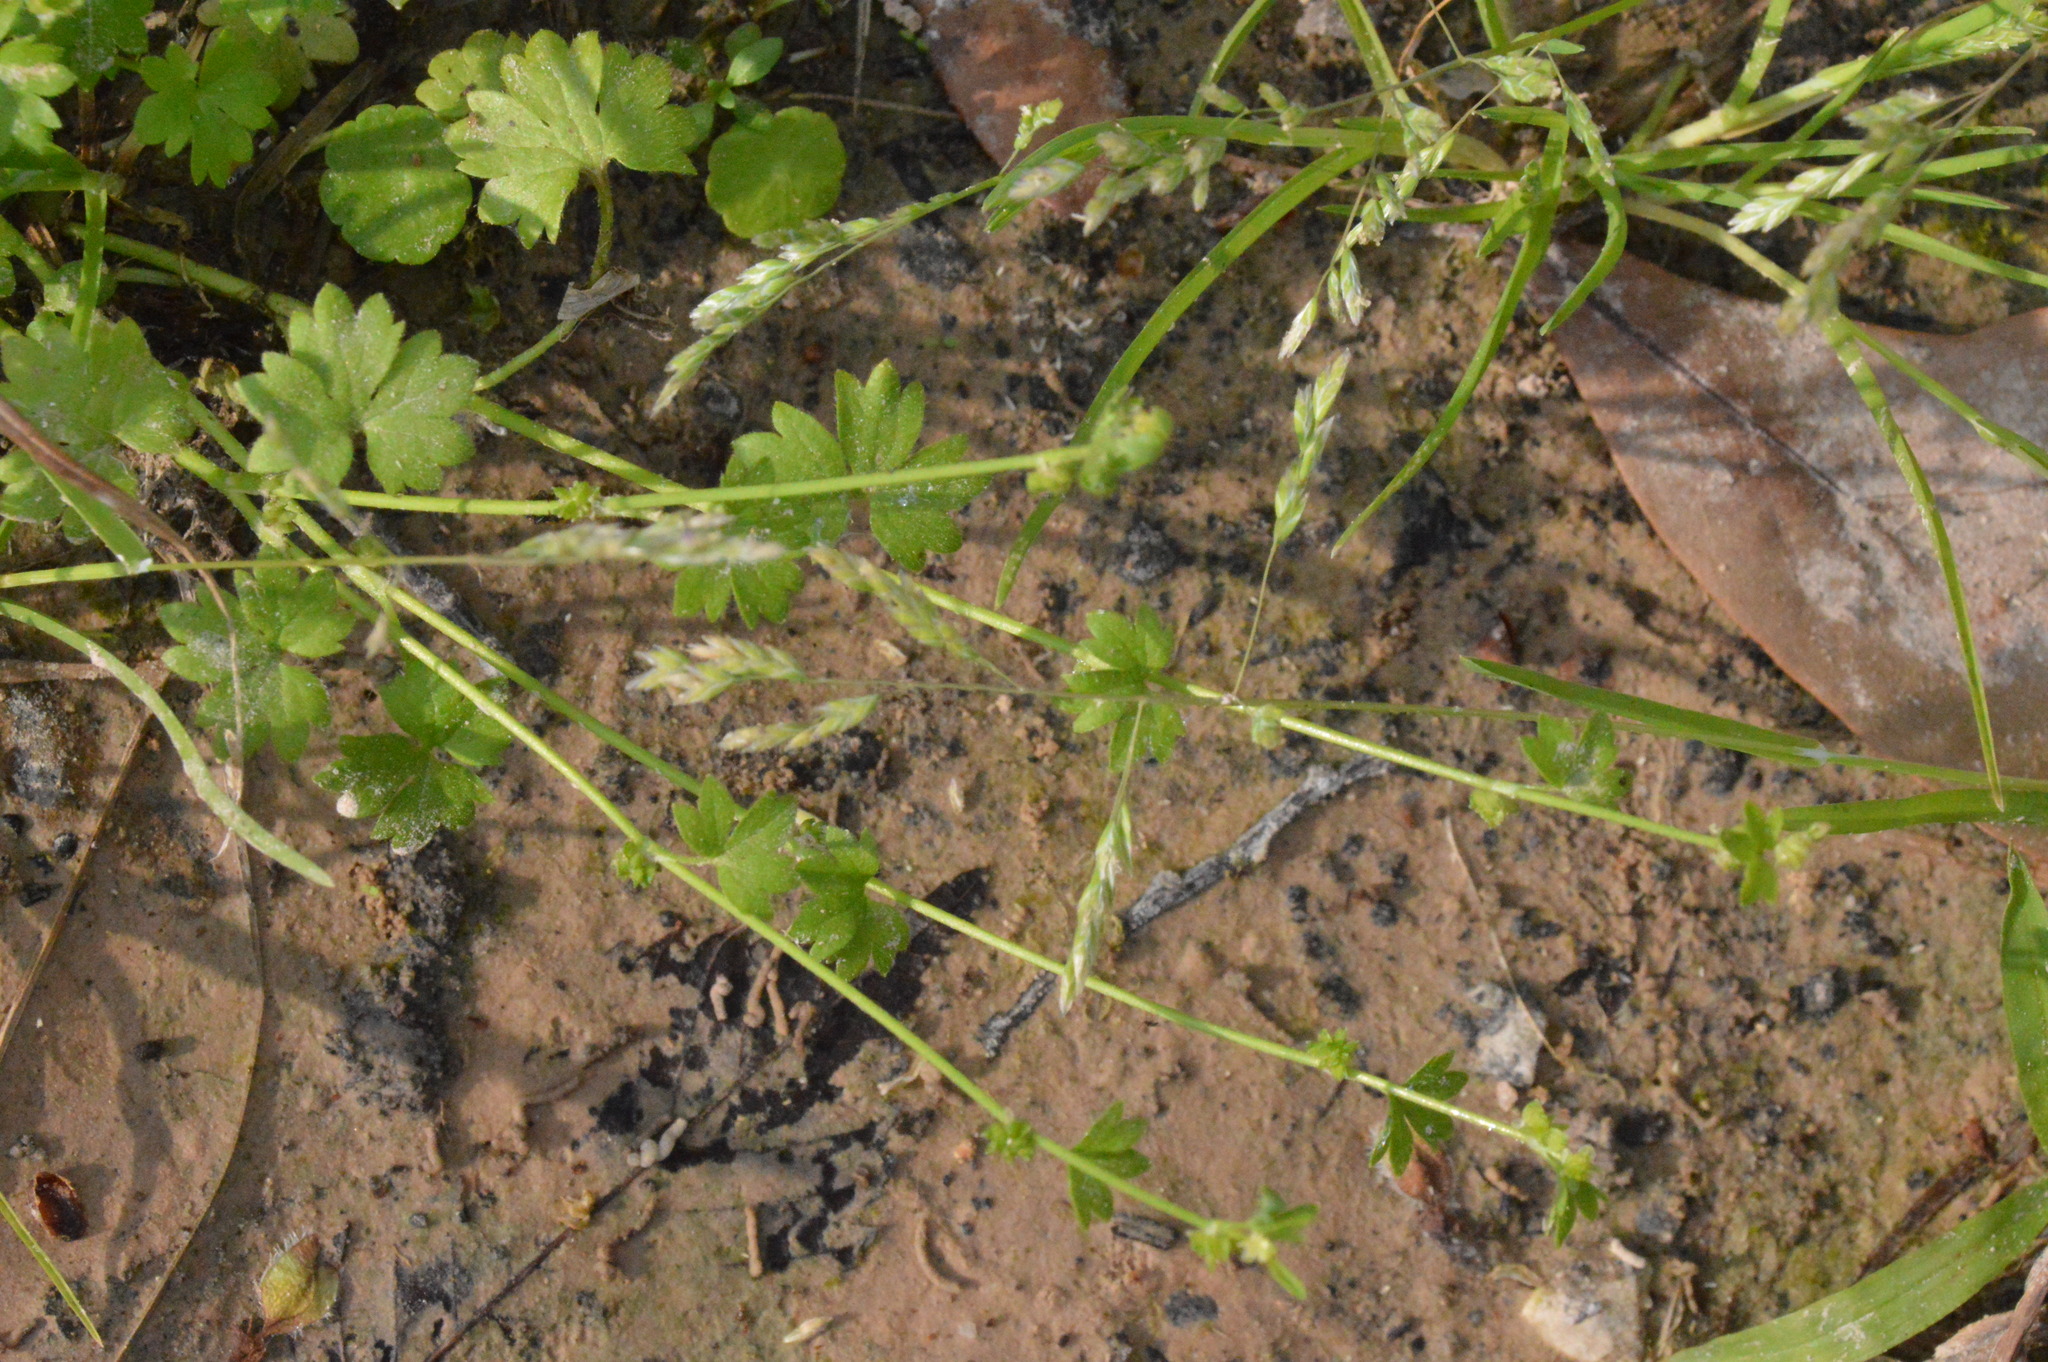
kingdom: Plantae
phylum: Tracheophyta
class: Magnoliopsida
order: Ranunculales
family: Ranunculaceae
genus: Ranunculus
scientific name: Ranunculus platensis
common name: Prairie buttercup
